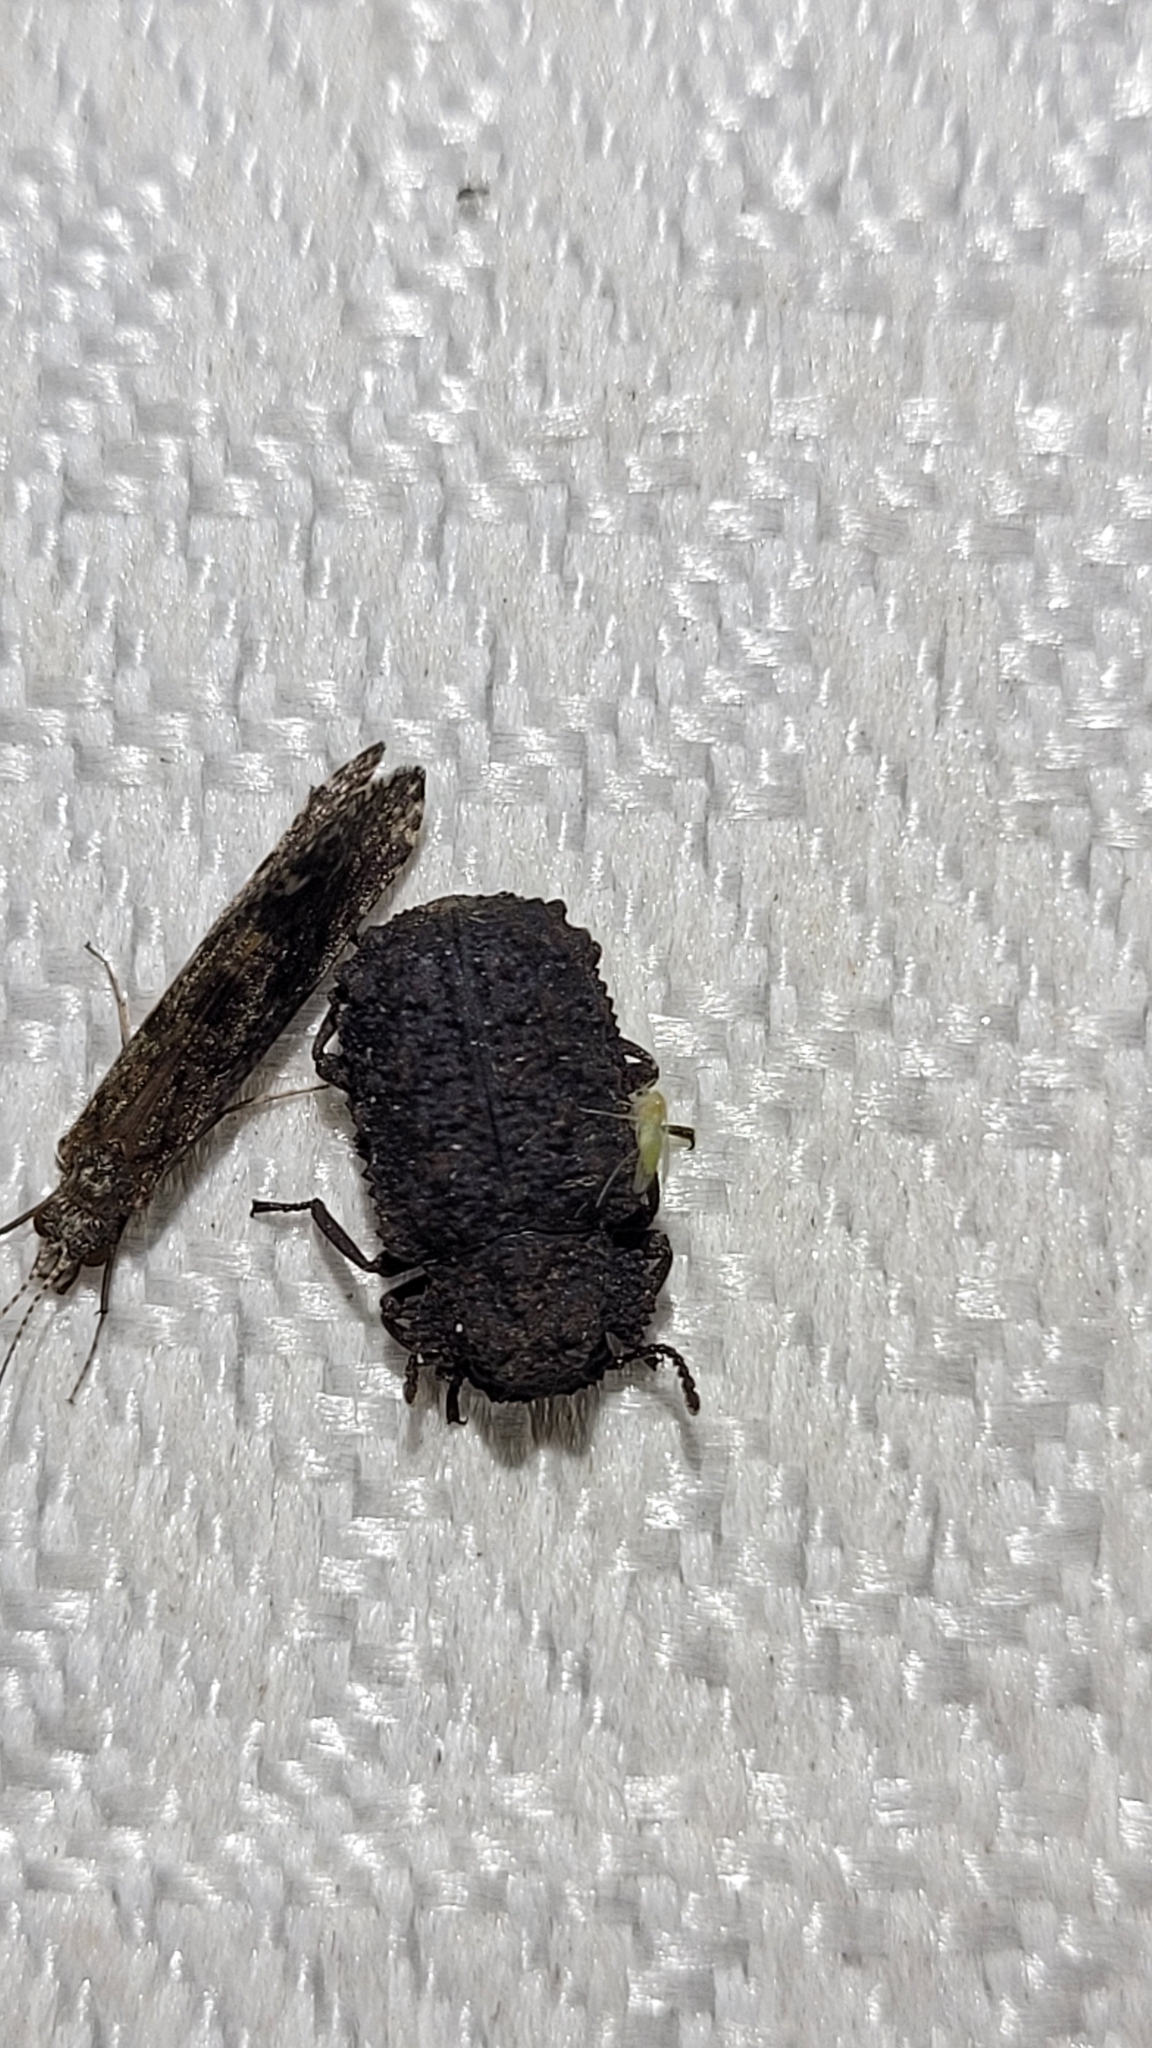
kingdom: Animalia
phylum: Arthropoda
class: Insecta
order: Coleoptera
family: Tenebrionidae
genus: Gnatocerus
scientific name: Gnatocerus cornutus
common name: Broad-horned flour beetle
